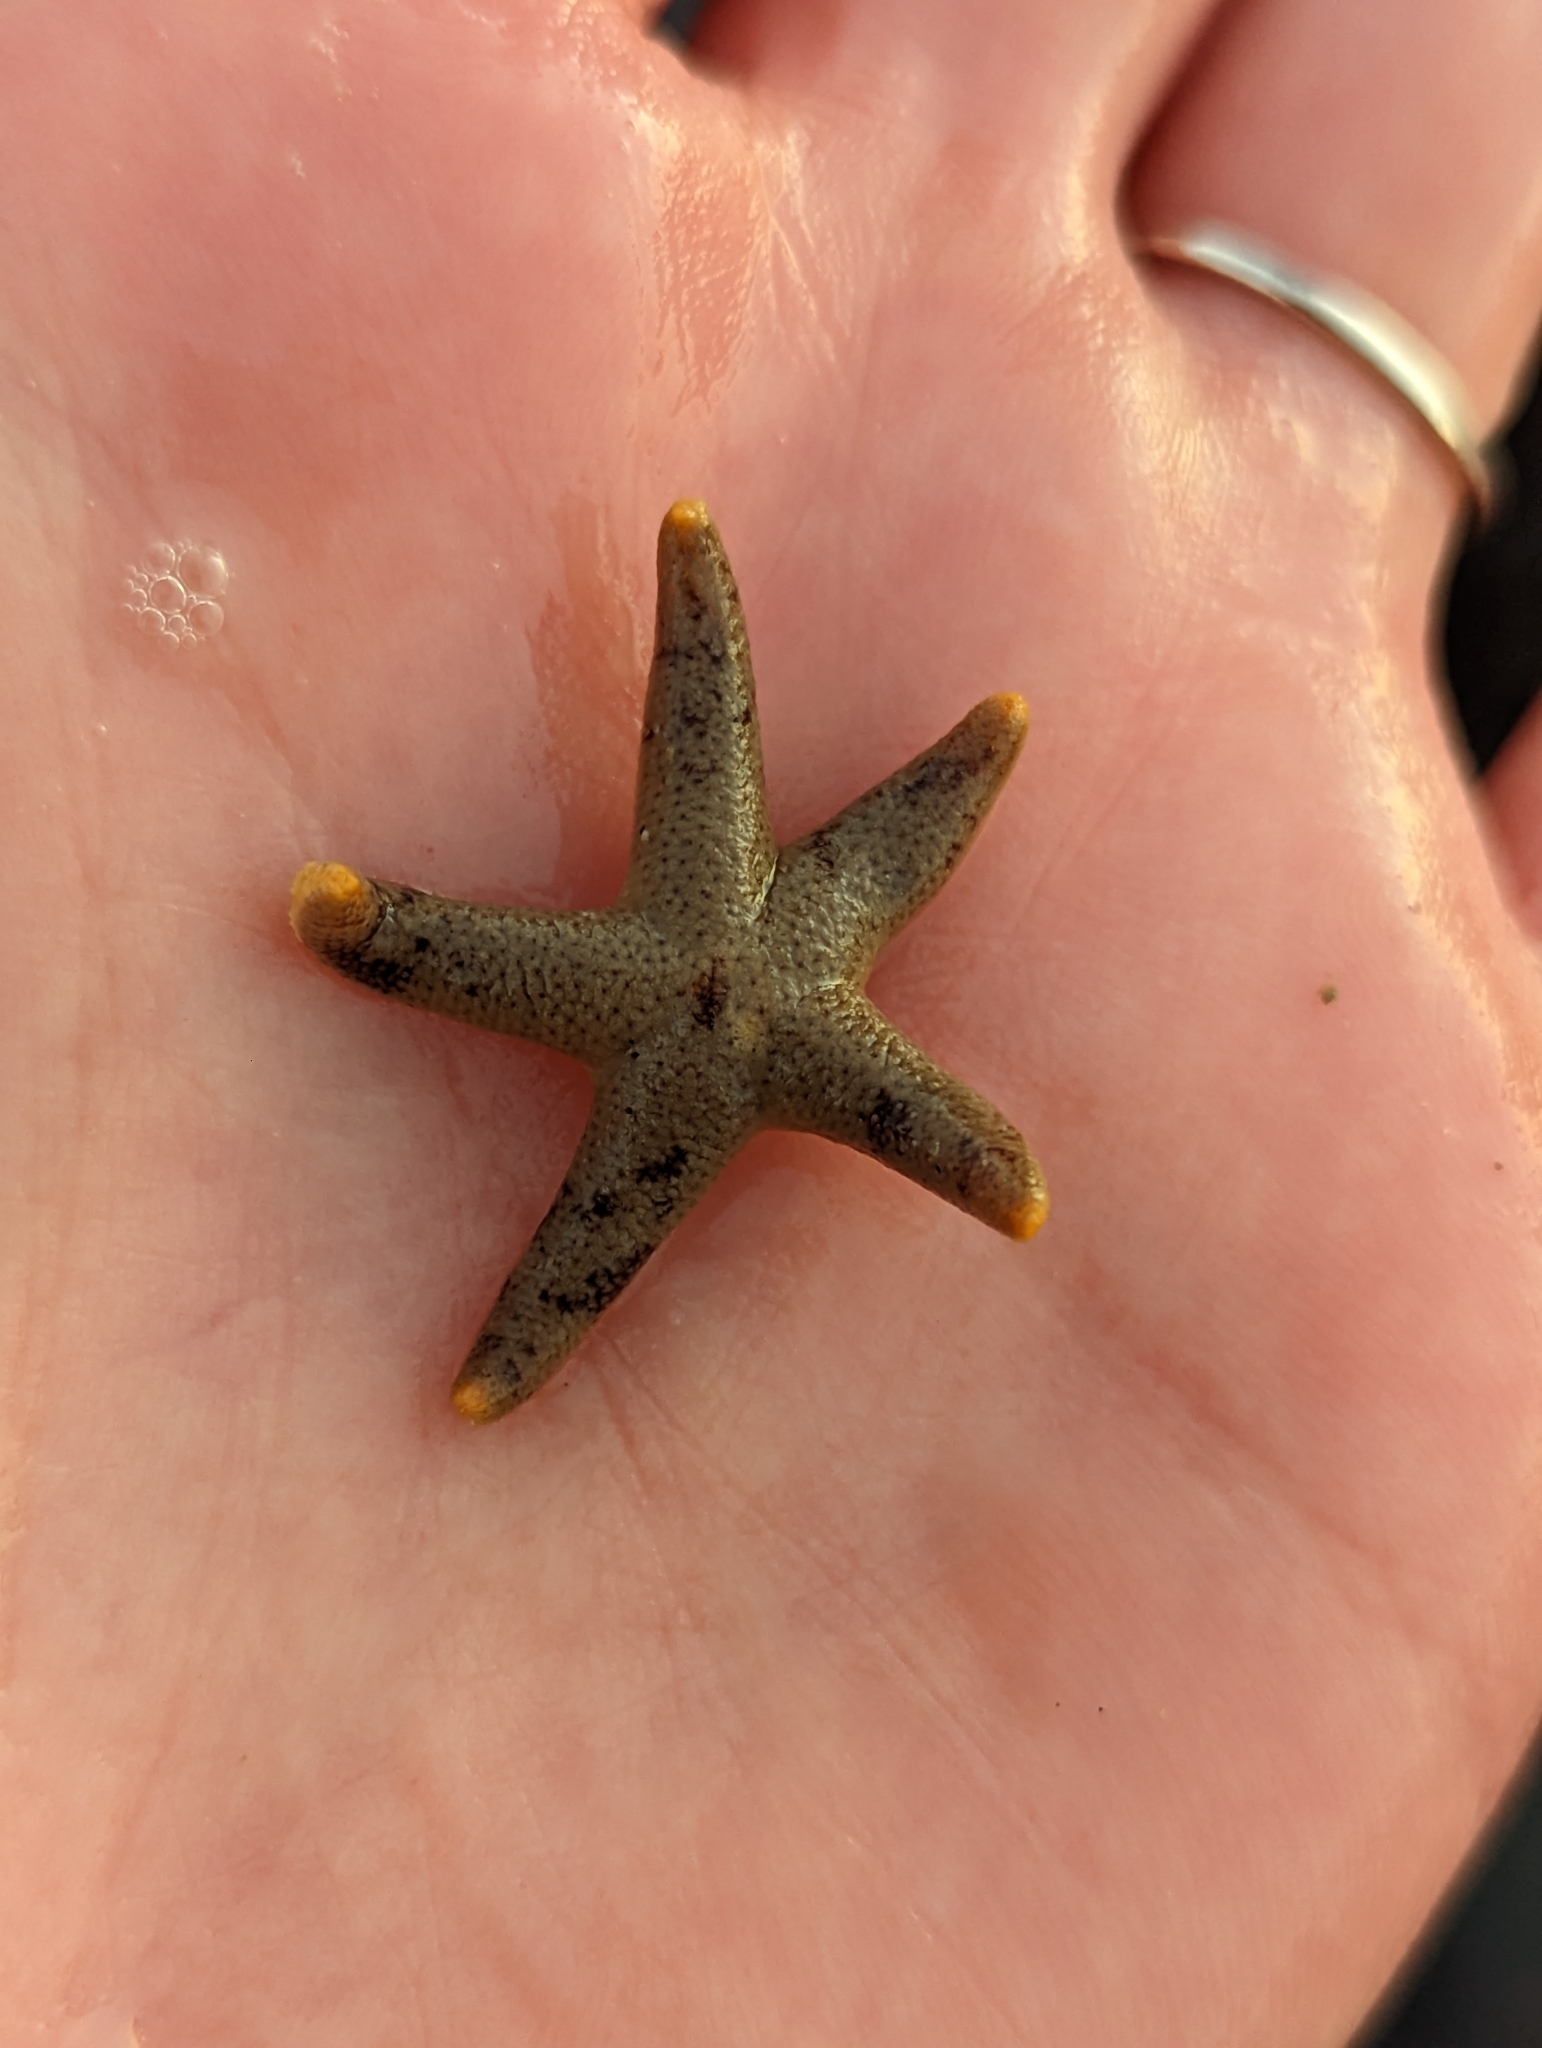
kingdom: Animalia
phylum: Echinodermata
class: Asteroidea
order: Spinulosida
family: Echinasteridae
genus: Henricia
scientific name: Henricia pumila
